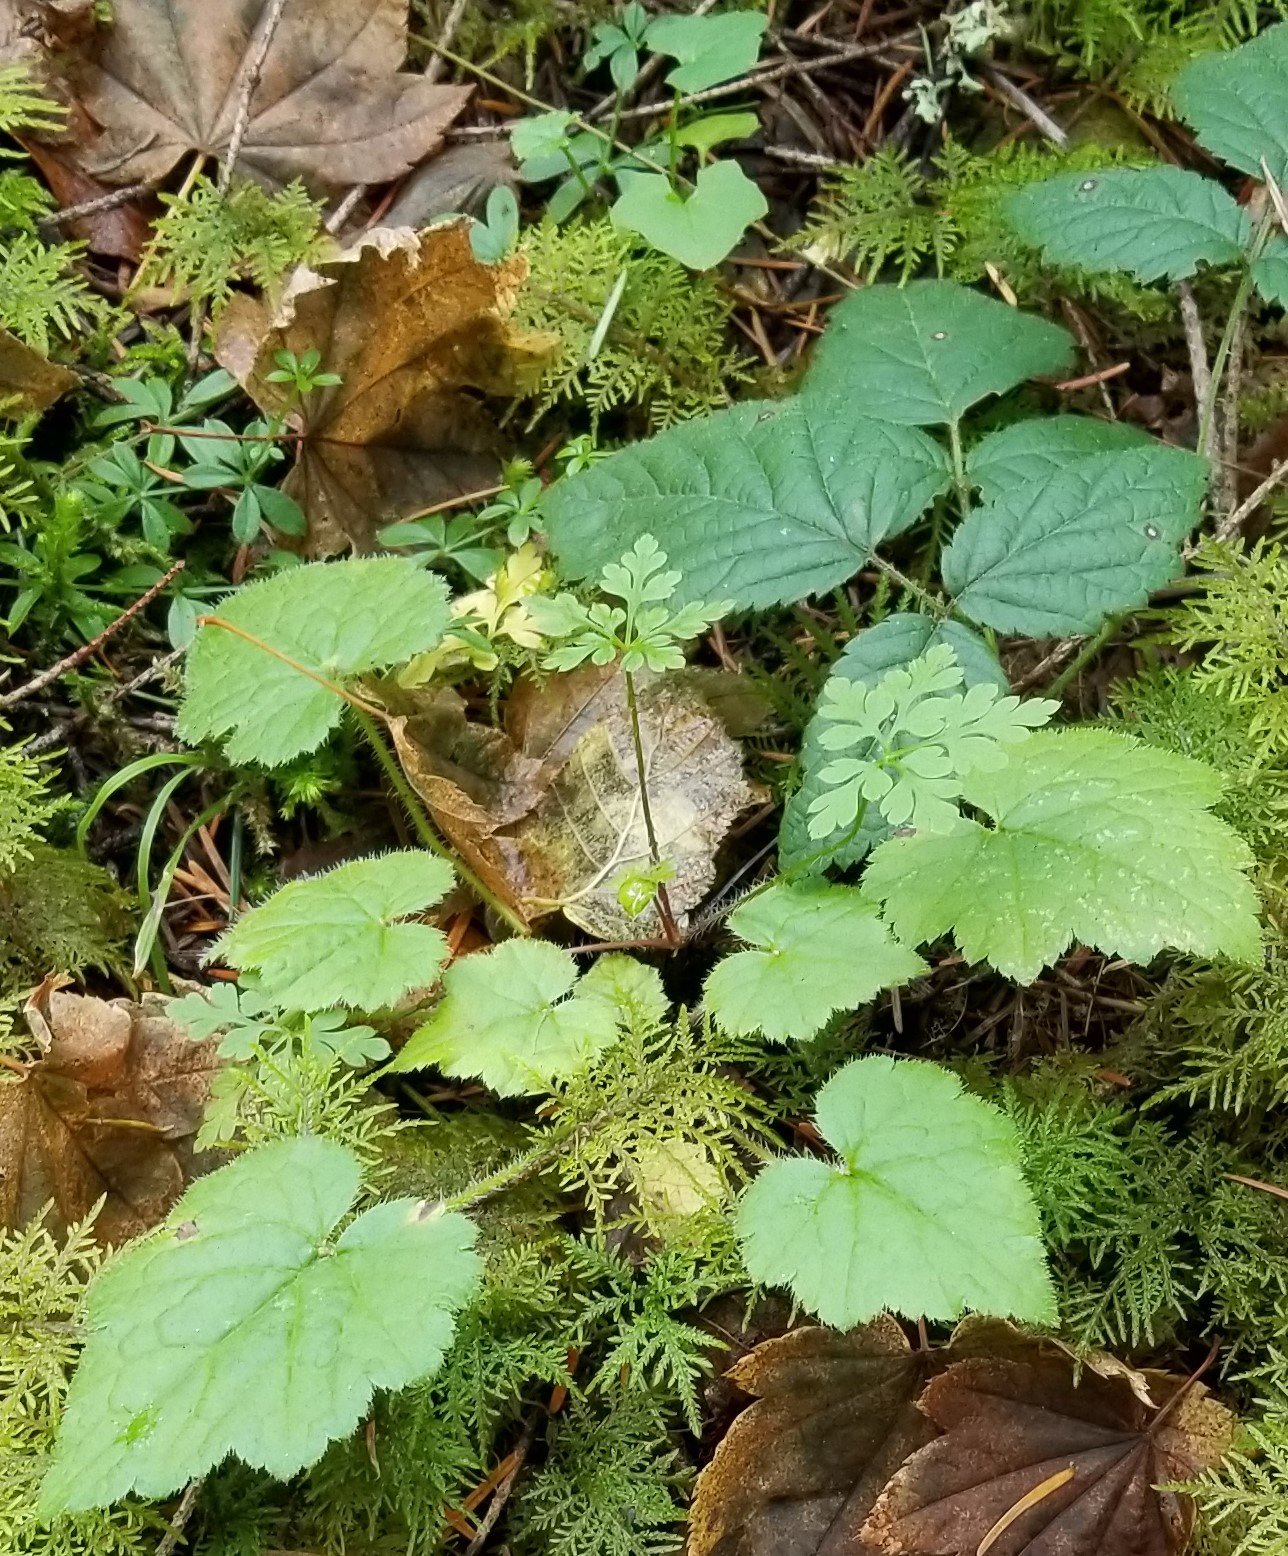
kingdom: Plantae
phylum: Tracheophyta
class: Magnoliopsida
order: Saxifragales
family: Saxifragaceae
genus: Tolmiea
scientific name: Tolmiea menziesii
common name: Pick-a-back-plant
